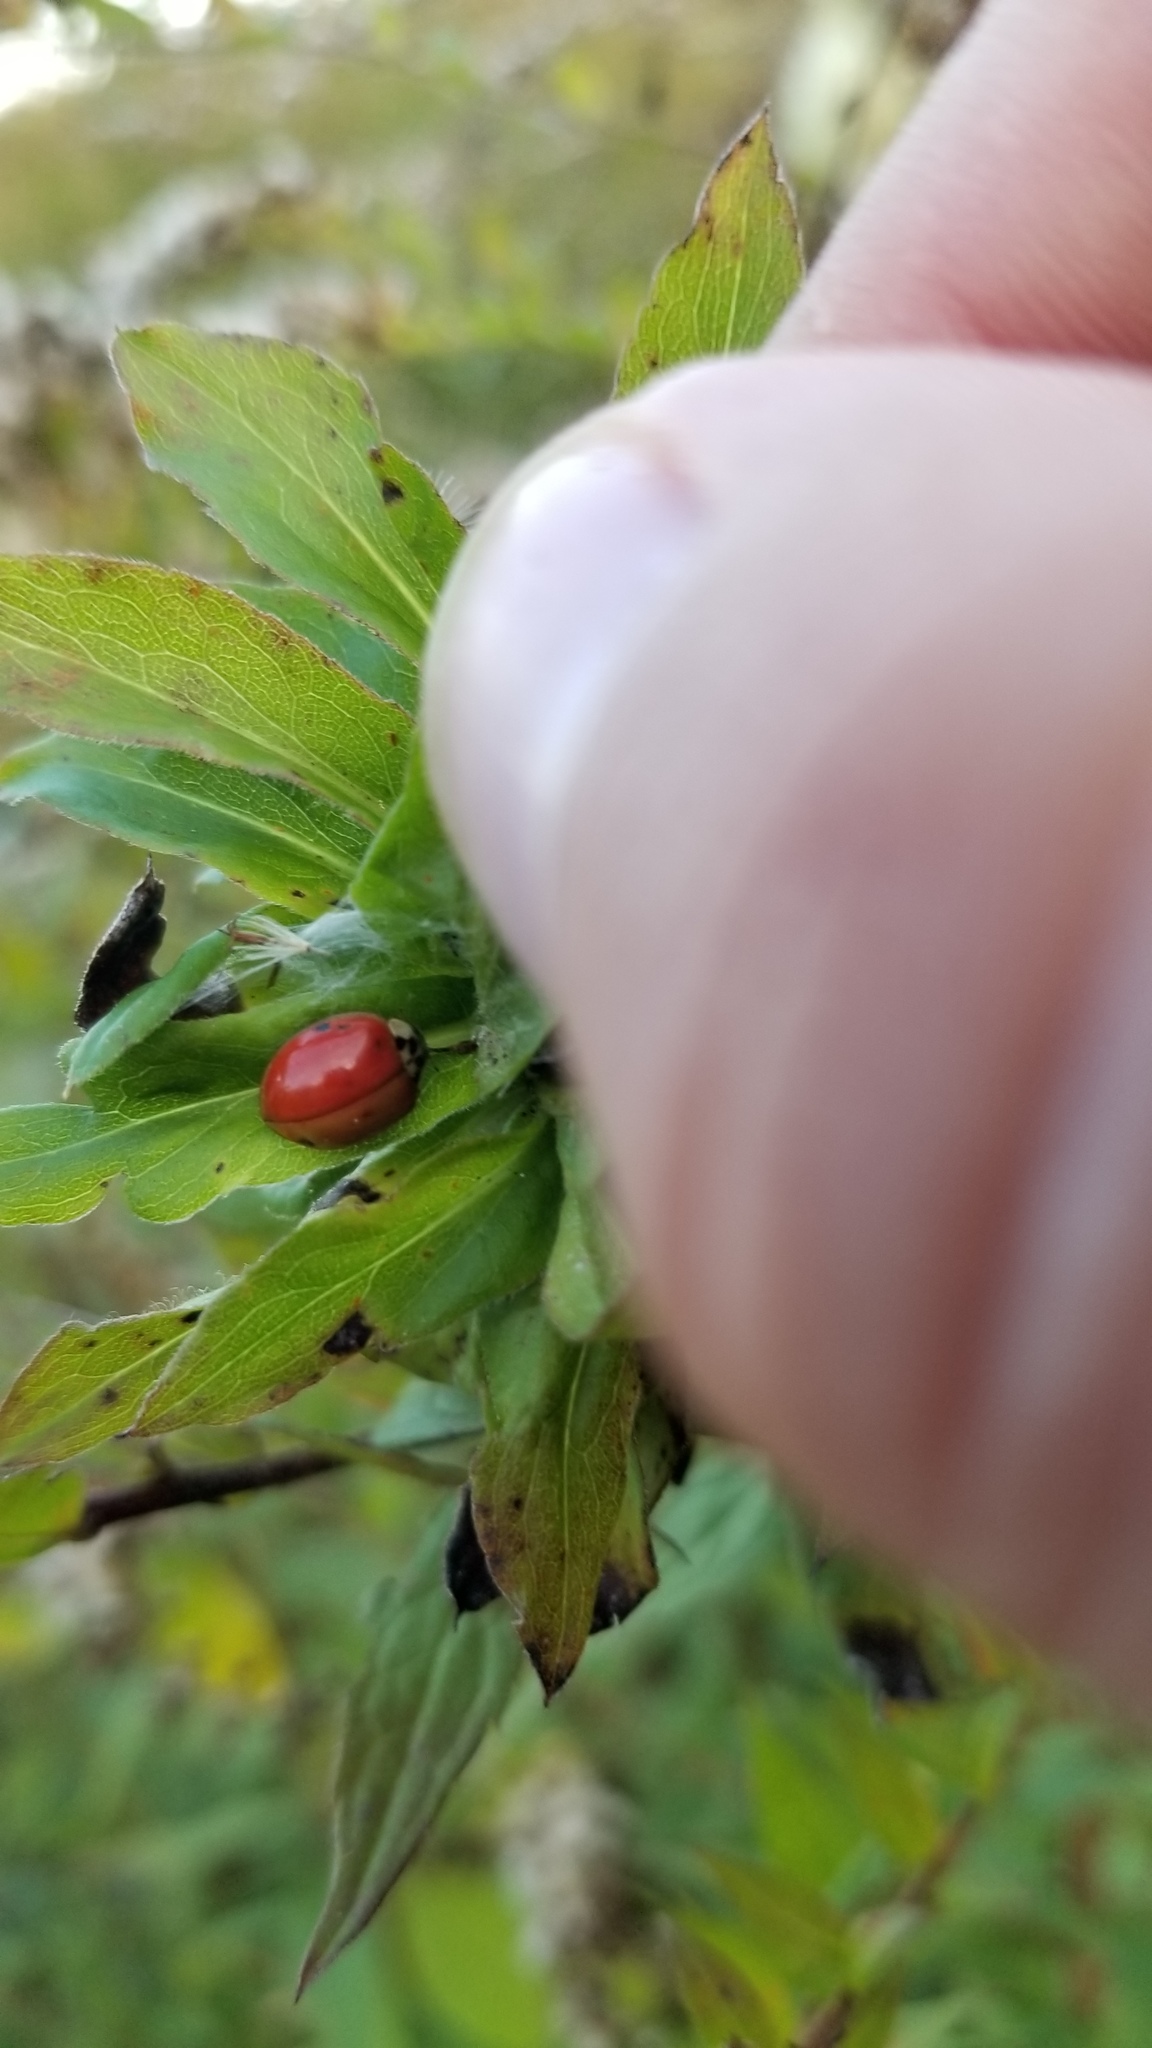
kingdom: Animalia
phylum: Arthropoda
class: Insecta
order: Coleoptera
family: Coccinellidae
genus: Harmonia
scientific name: Harmonia axyridis
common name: Harlequin ladybird
